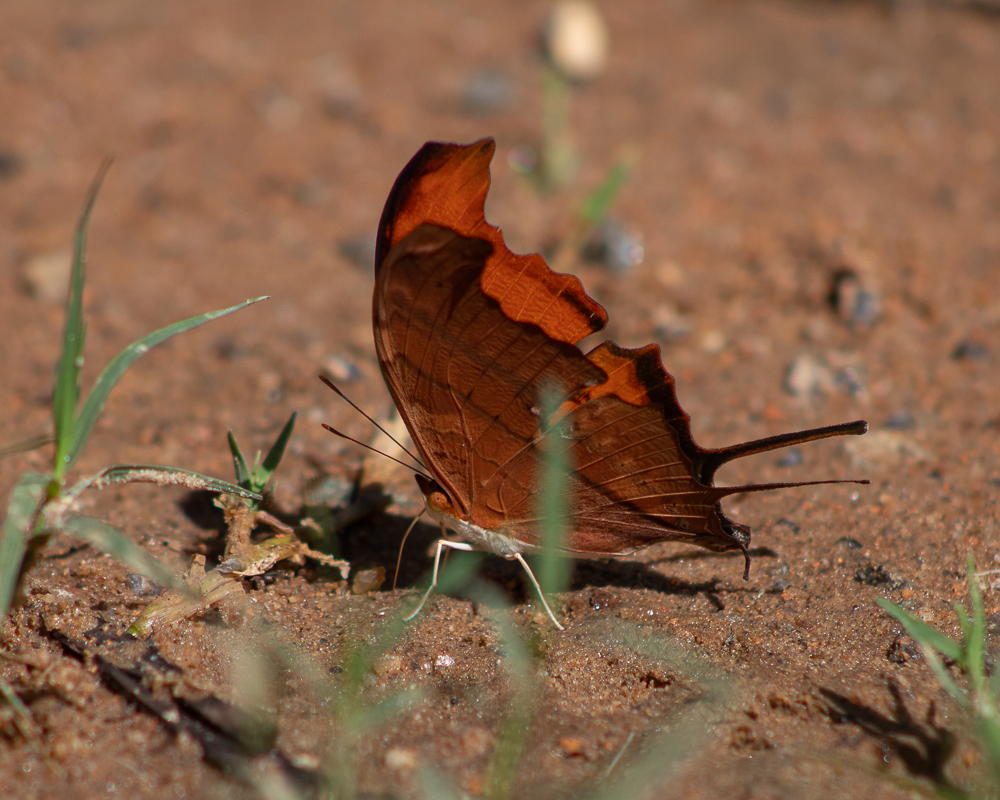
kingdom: Animalia
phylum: Arthropoda
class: Insecta
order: Lepidoptera
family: Nymphalidae
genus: Marpesia
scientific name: Marpesia petreus
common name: Red dagger wing
